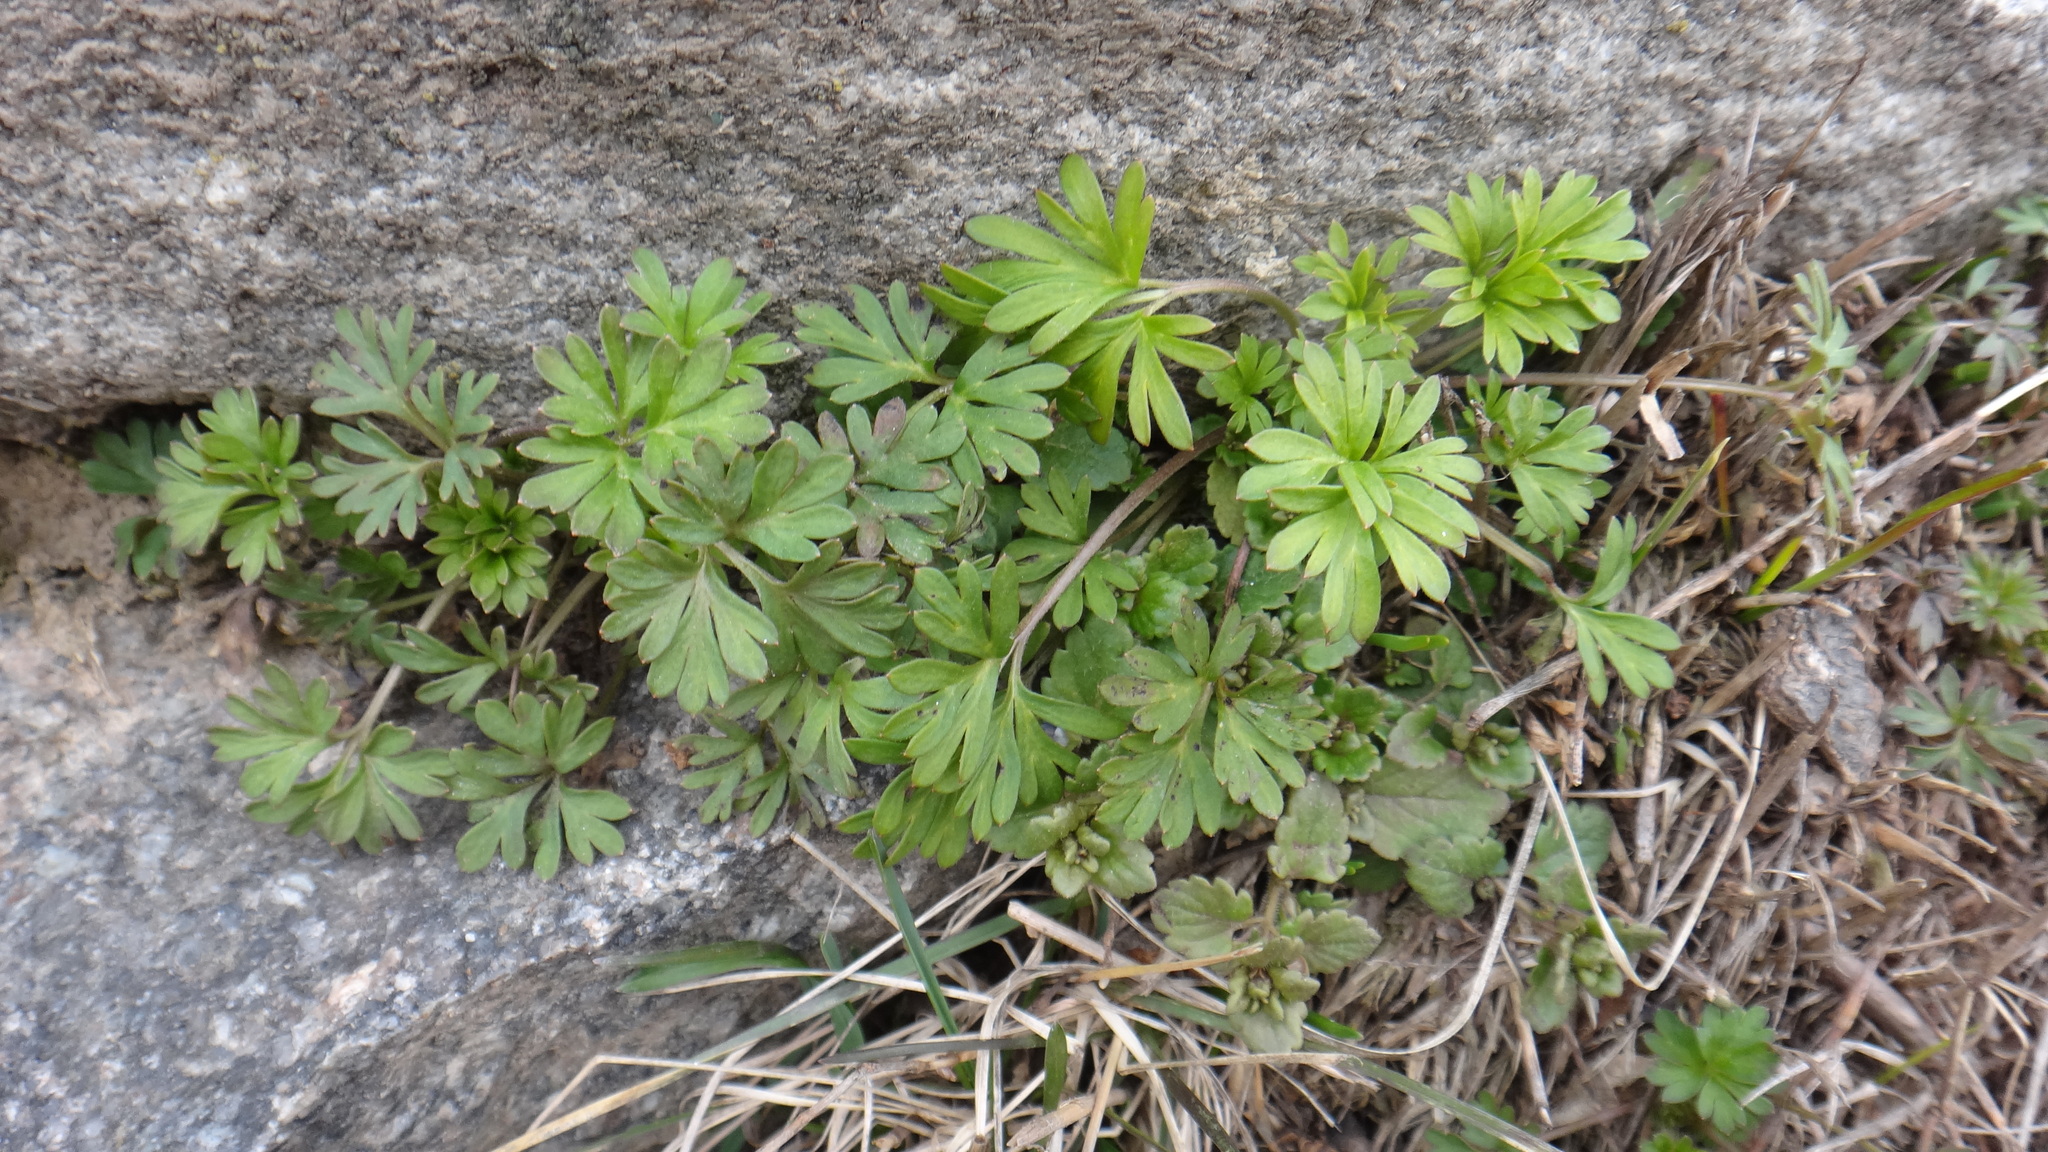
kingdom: Plantae
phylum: Tracheophyta
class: Magnoliopsida
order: Ranunculales
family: Ranunculaceae
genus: Delphinium
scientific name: Delphinium consolida
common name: Branching larkspur
